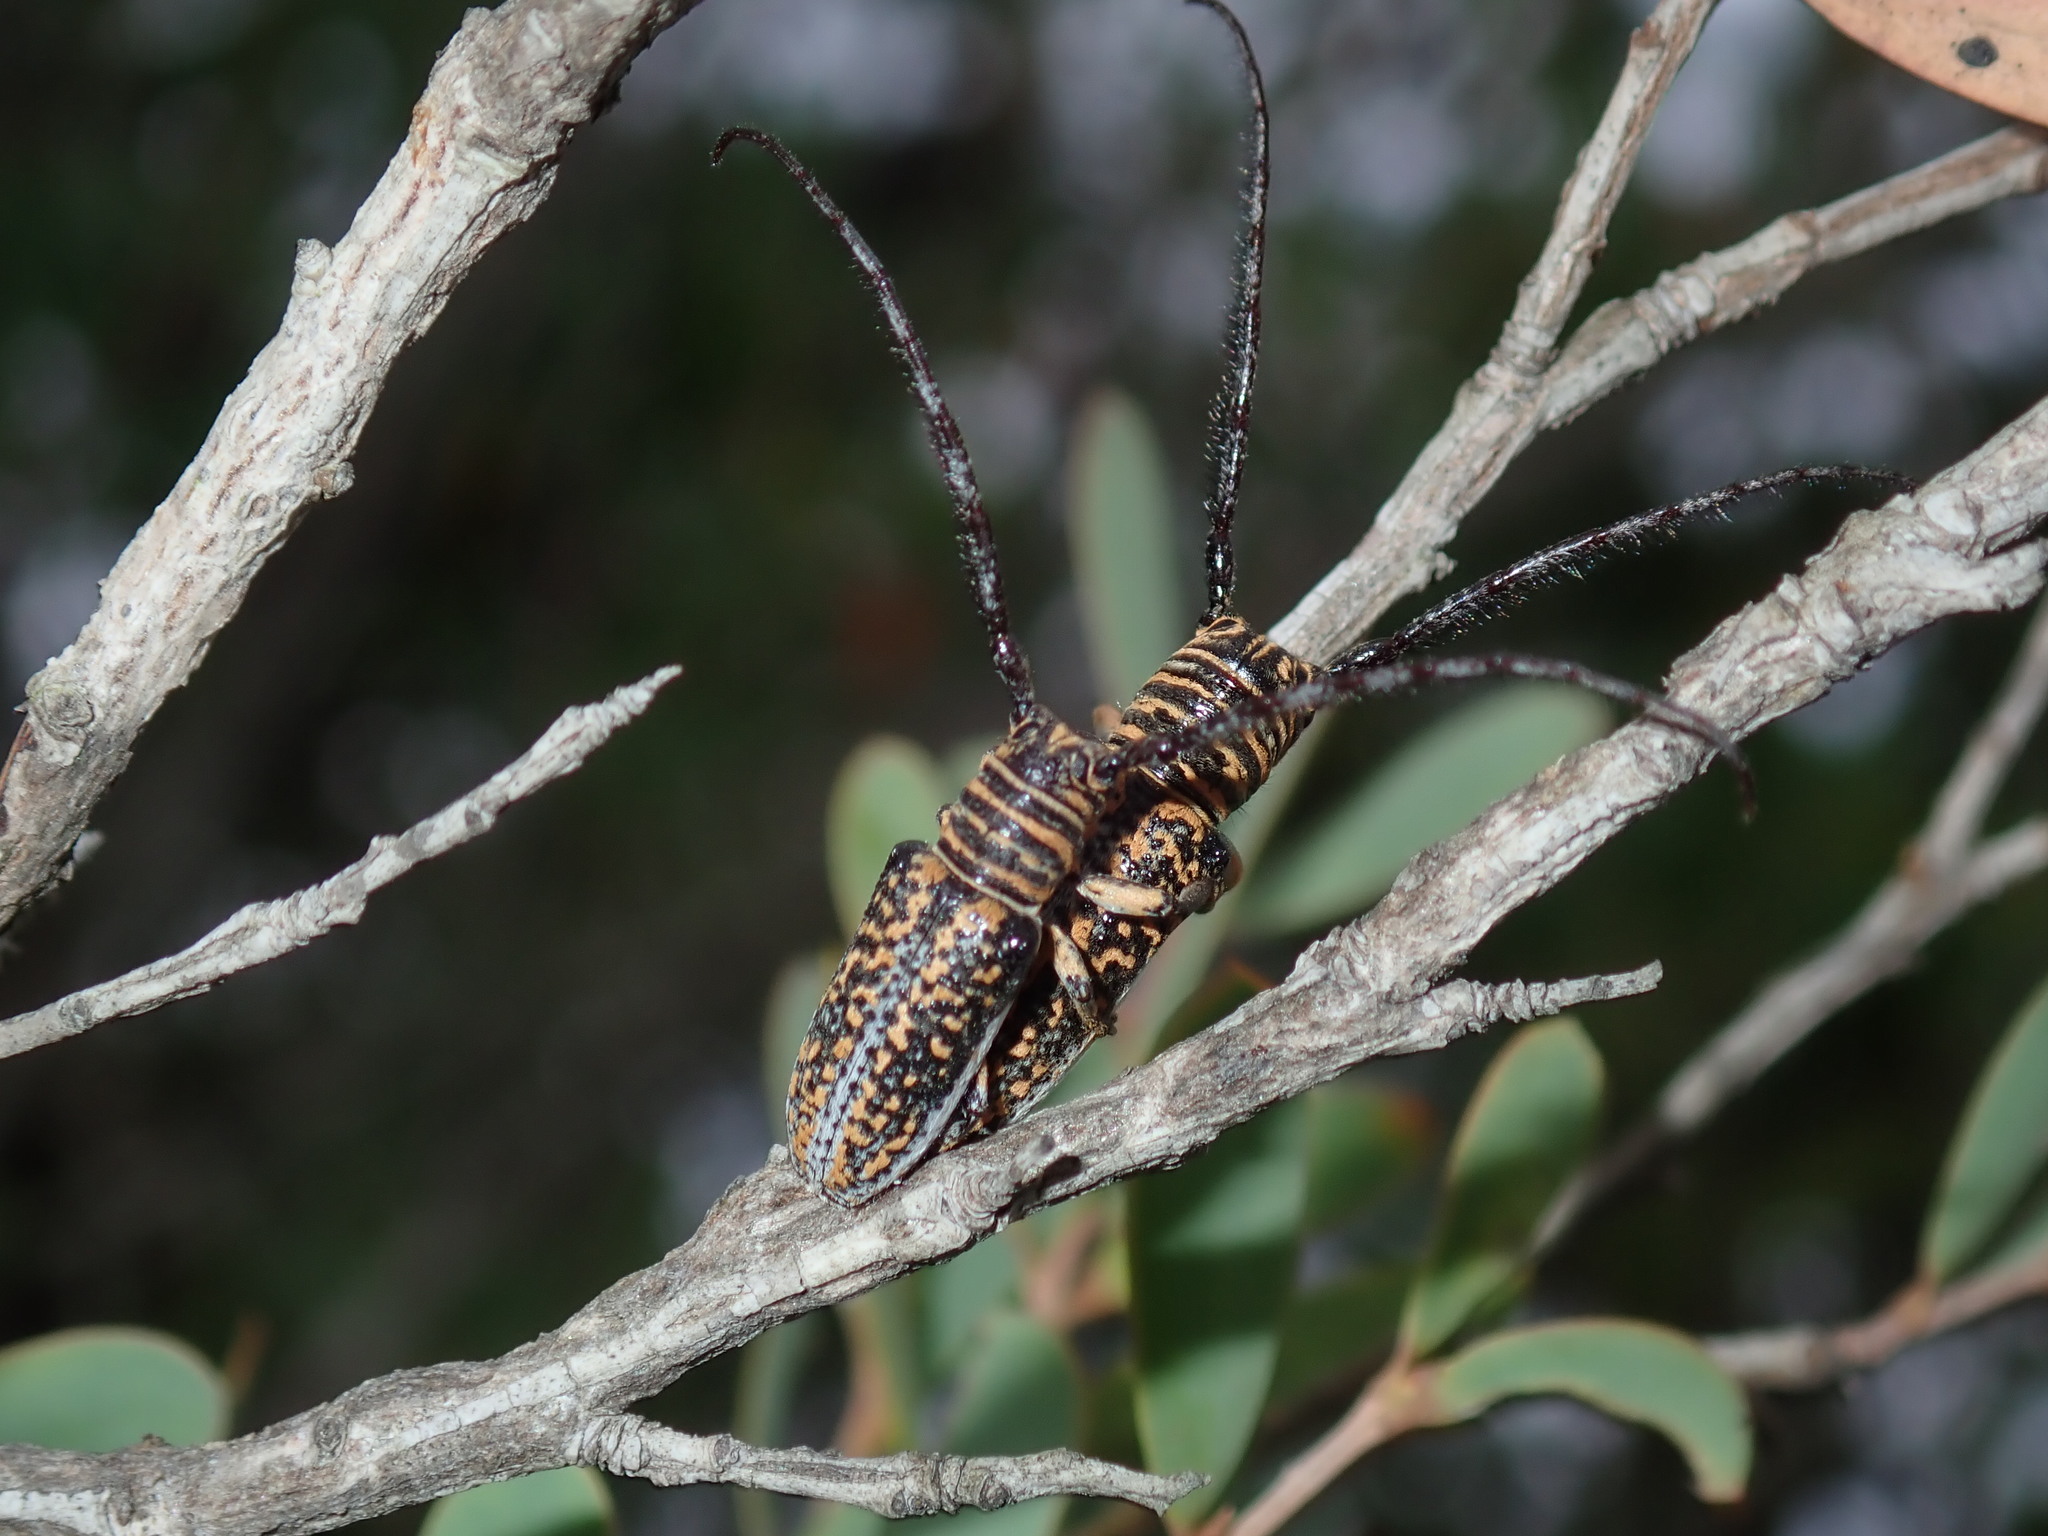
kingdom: Animalia
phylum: Arthropoda
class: Insecta
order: Coleoptera
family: Cerambycidae
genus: Rhytiphora
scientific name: Rhytiphora vestigialis
